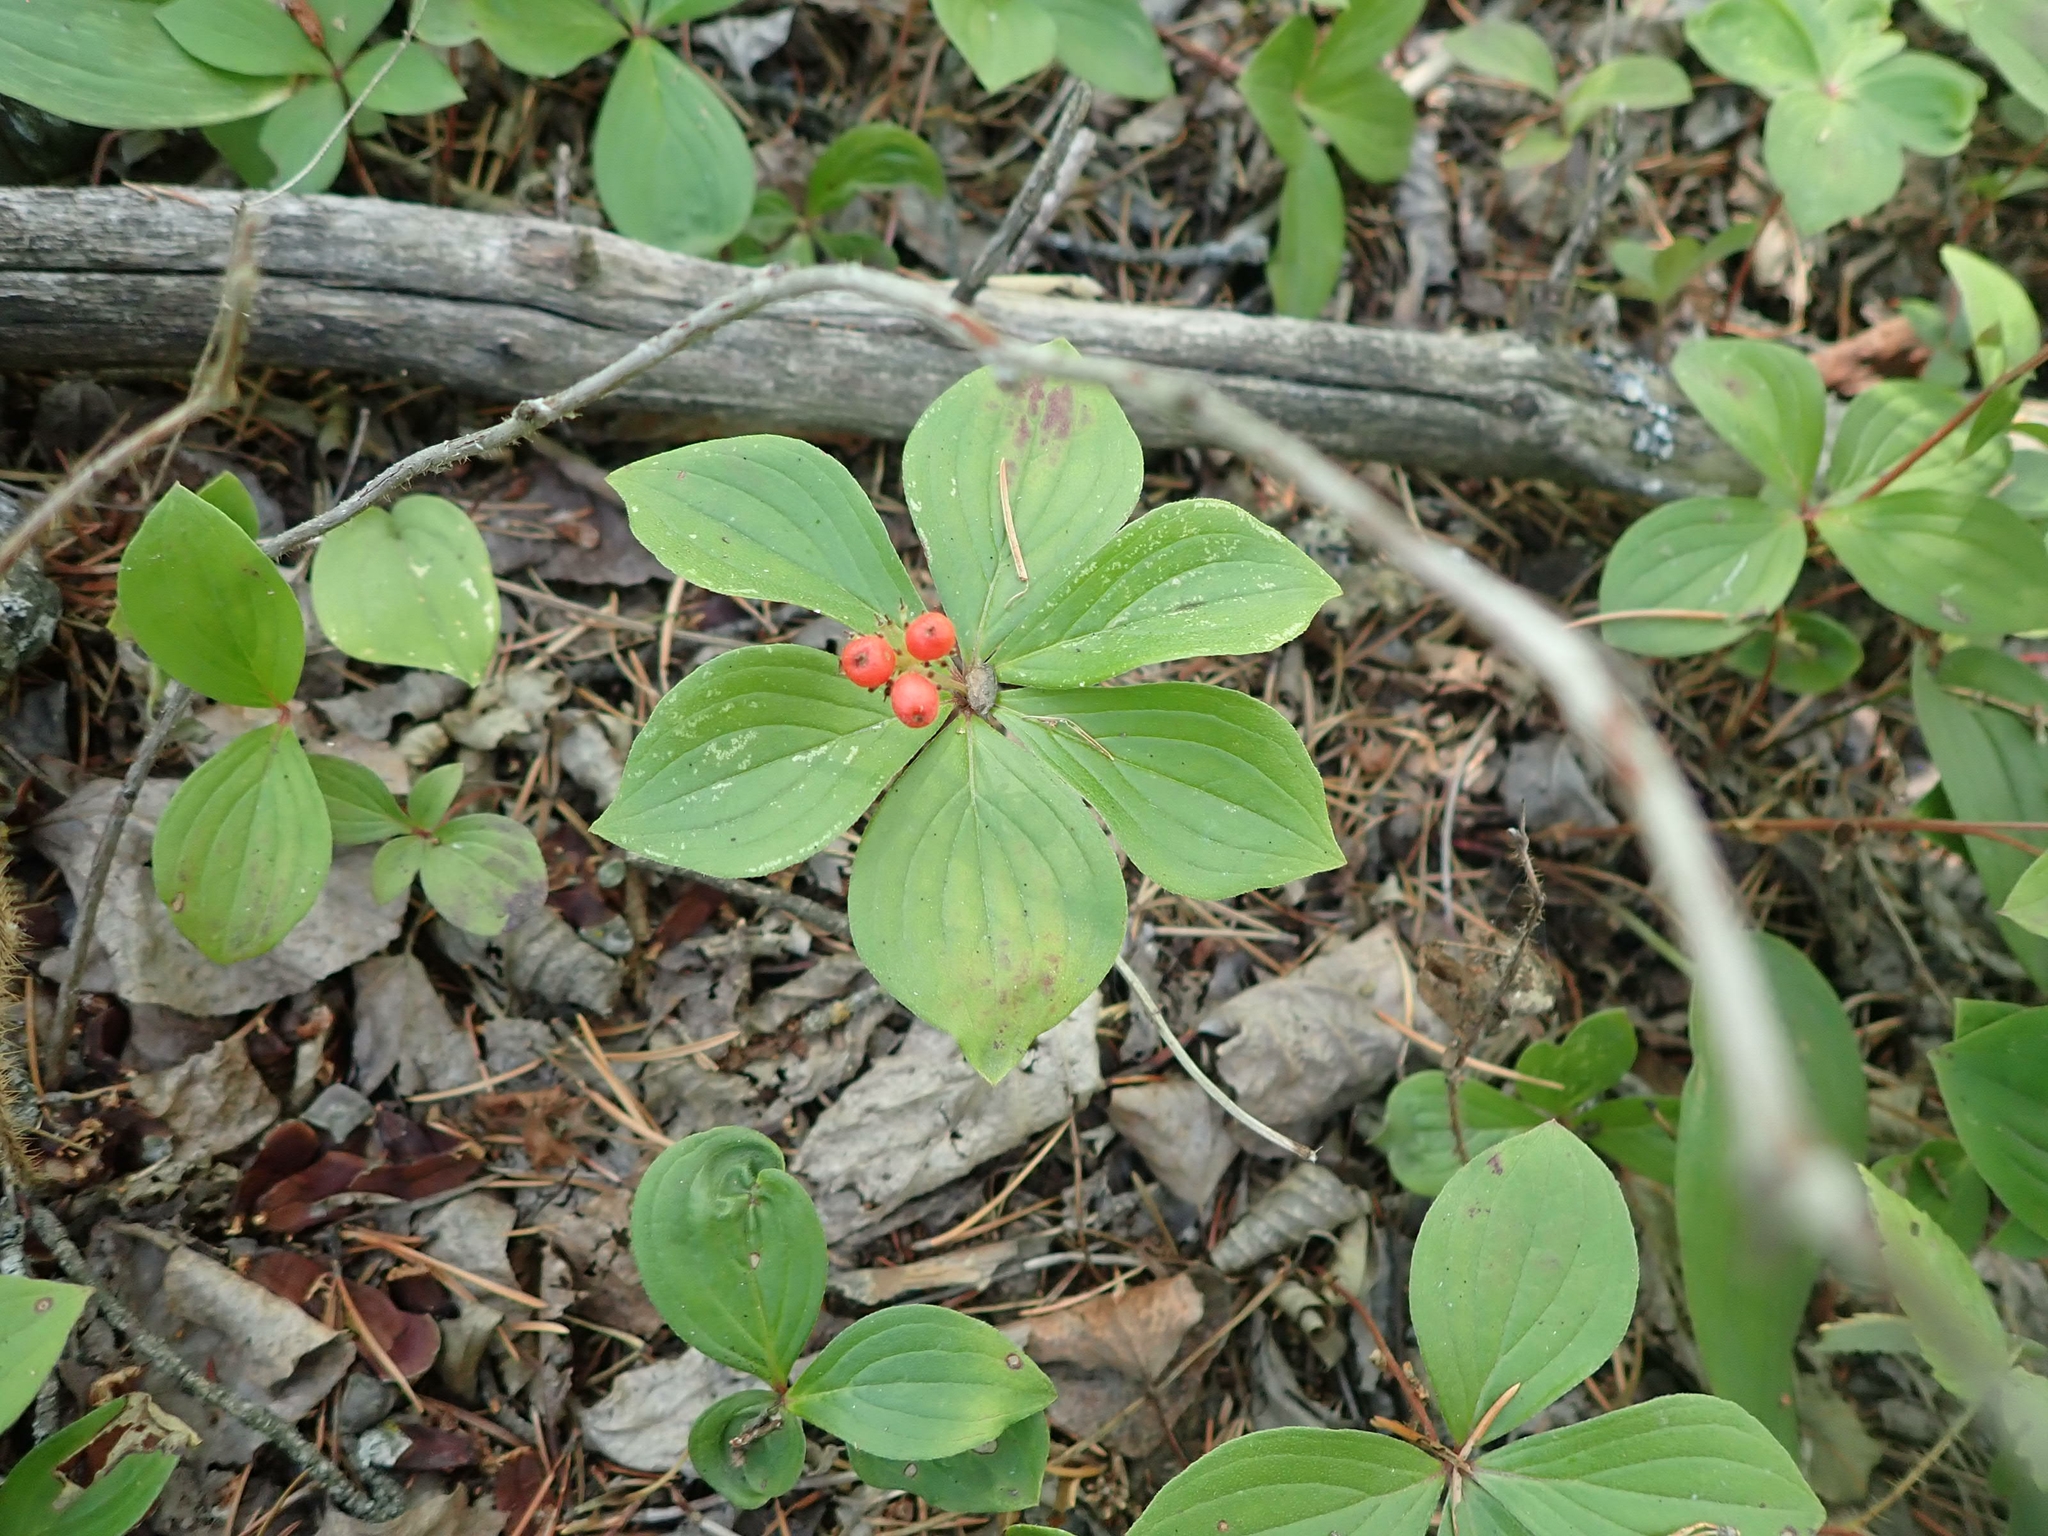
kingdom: Plantae
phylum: Tracheophyta
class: Magnoliopsida
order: Cornales
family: Cornaceae
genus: Cornus
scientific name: Cornus canadensis
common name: Creeping dogwood
